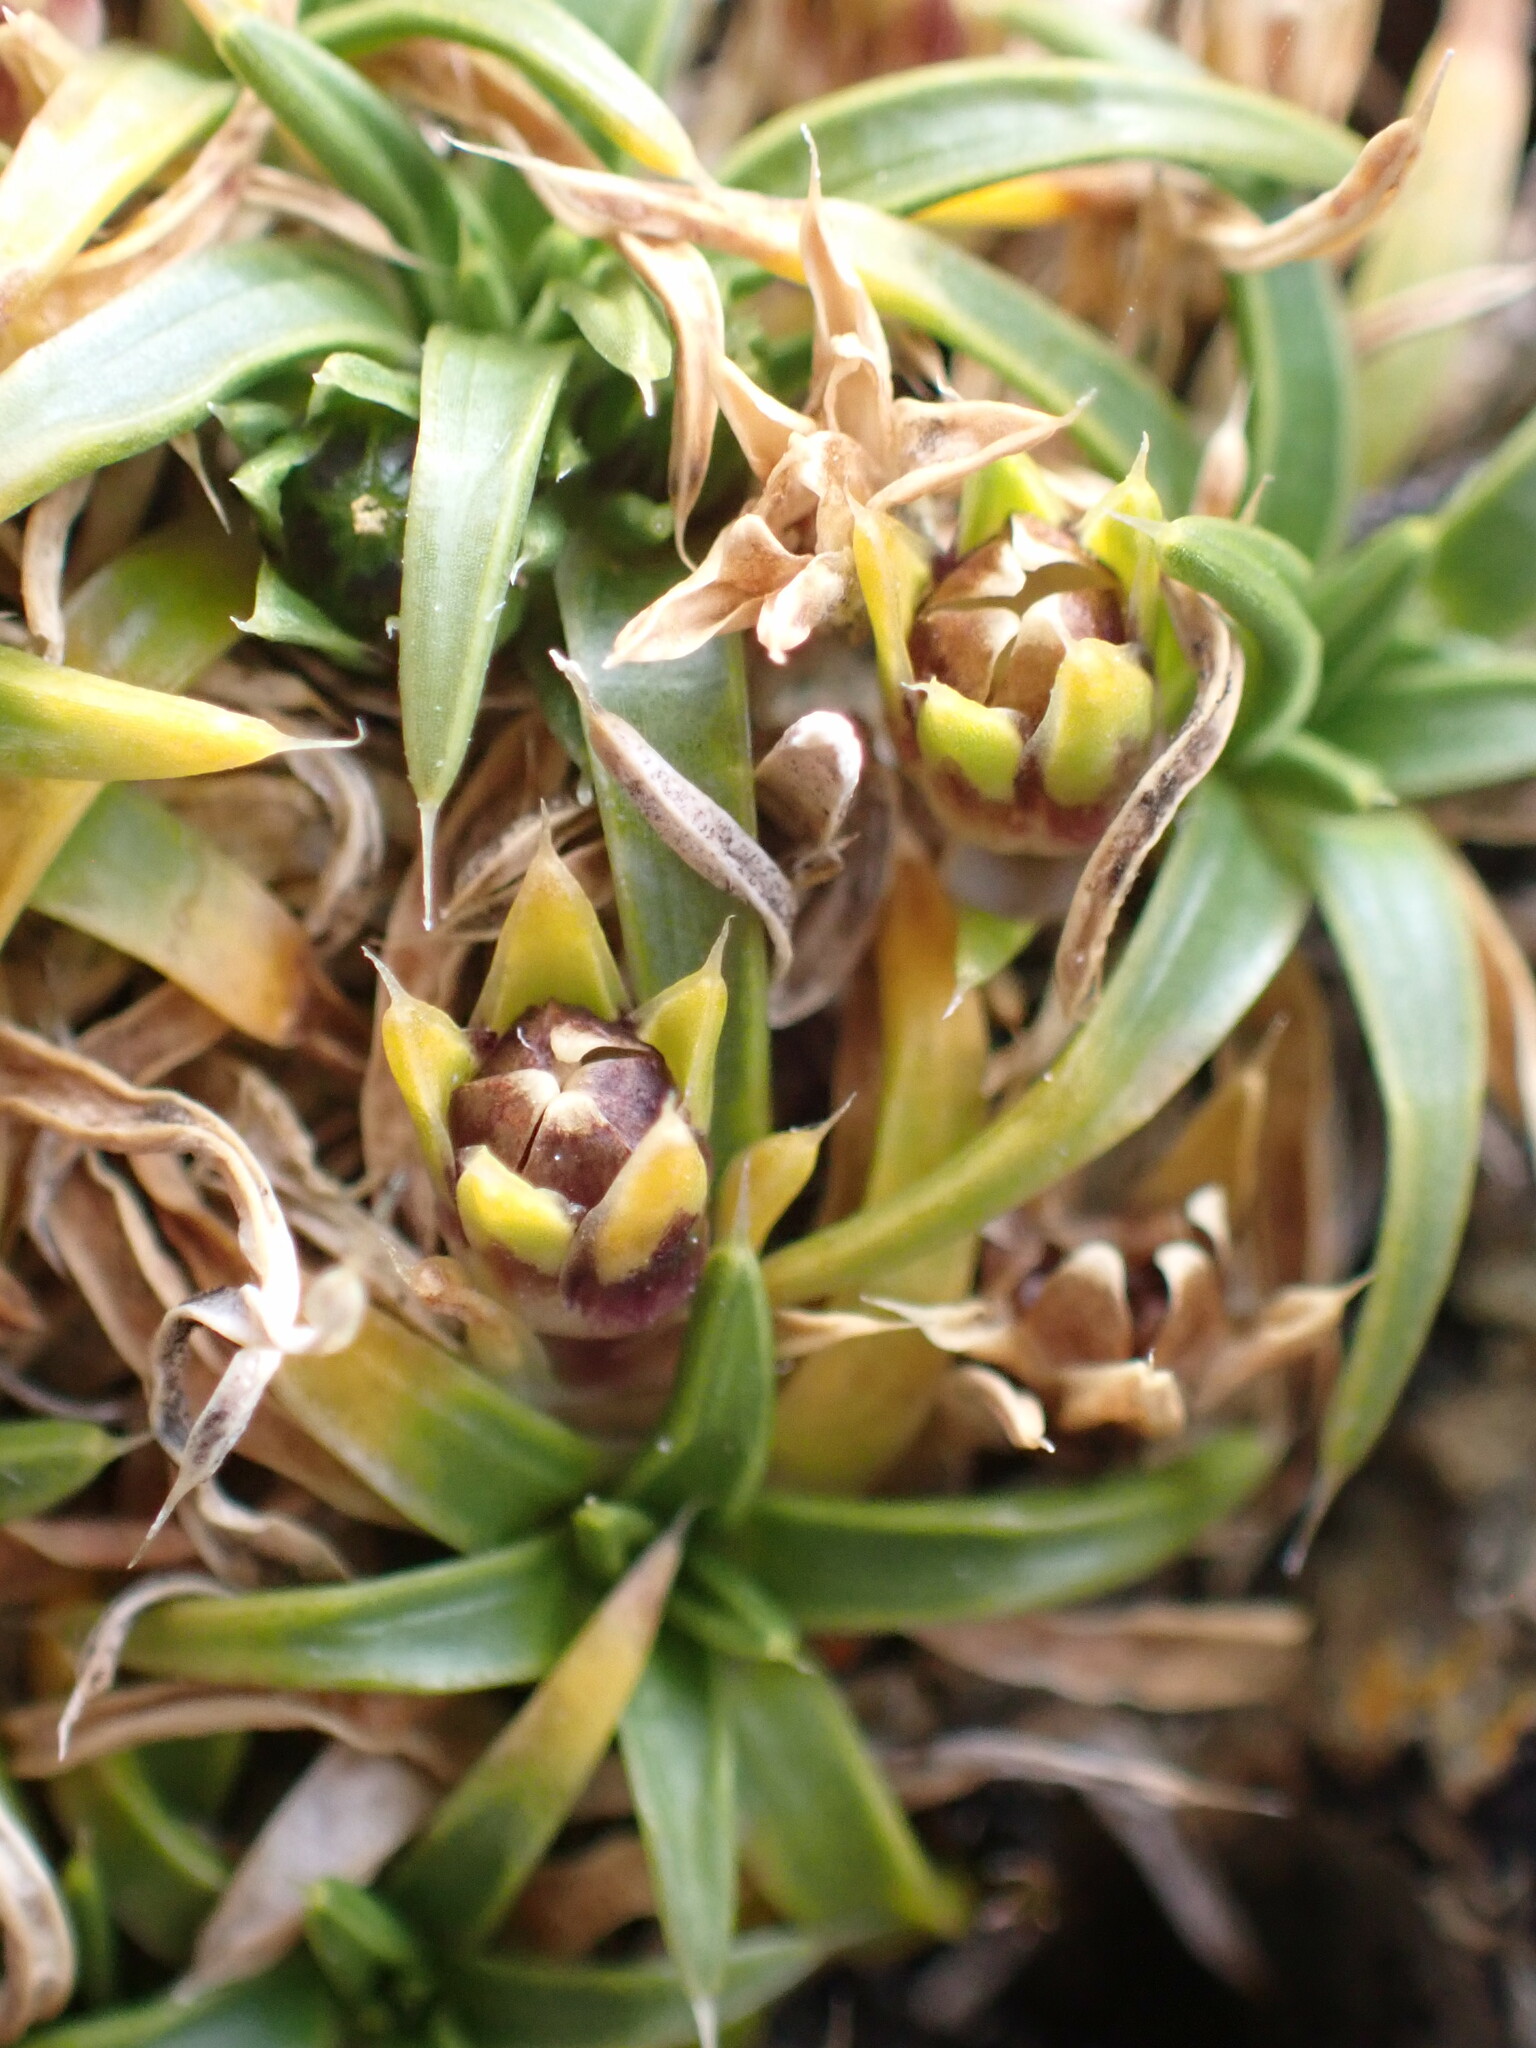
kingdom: Plantae
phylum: Tracheophyta
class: Magnoliopsida
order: Caryophyllales
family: Caryophyllaceae
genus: Colobanthus
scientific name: Colobanthus muelleri
